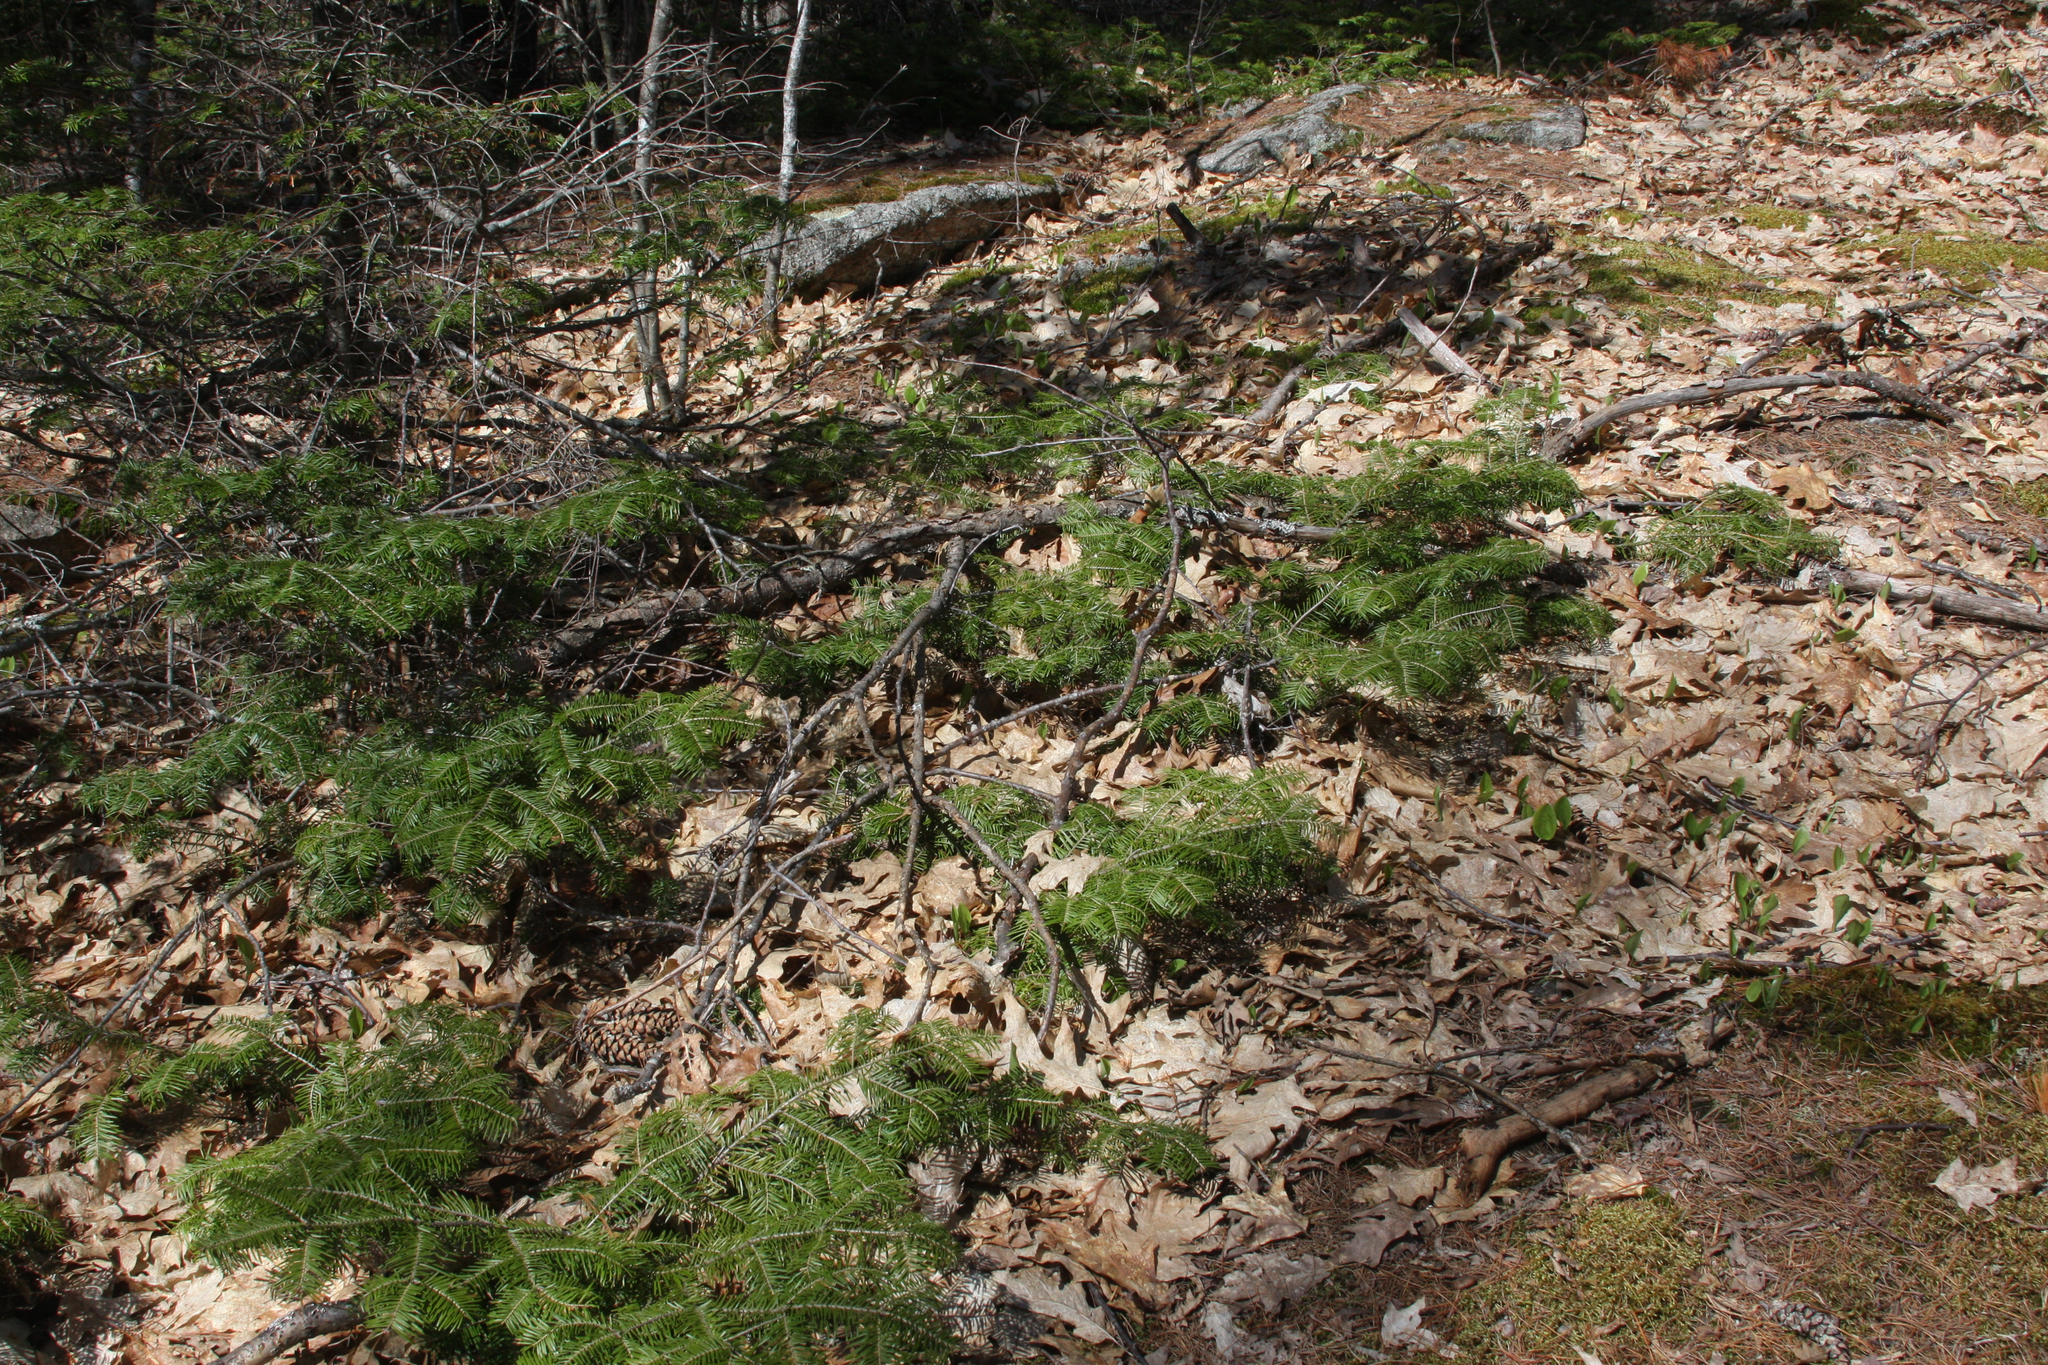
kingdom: Plantae
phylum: Tracheophyta
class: Pinopsida
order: Pinales
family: Pinaceae
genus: Abies
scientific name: Abies balsamea
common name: Balsam fir
